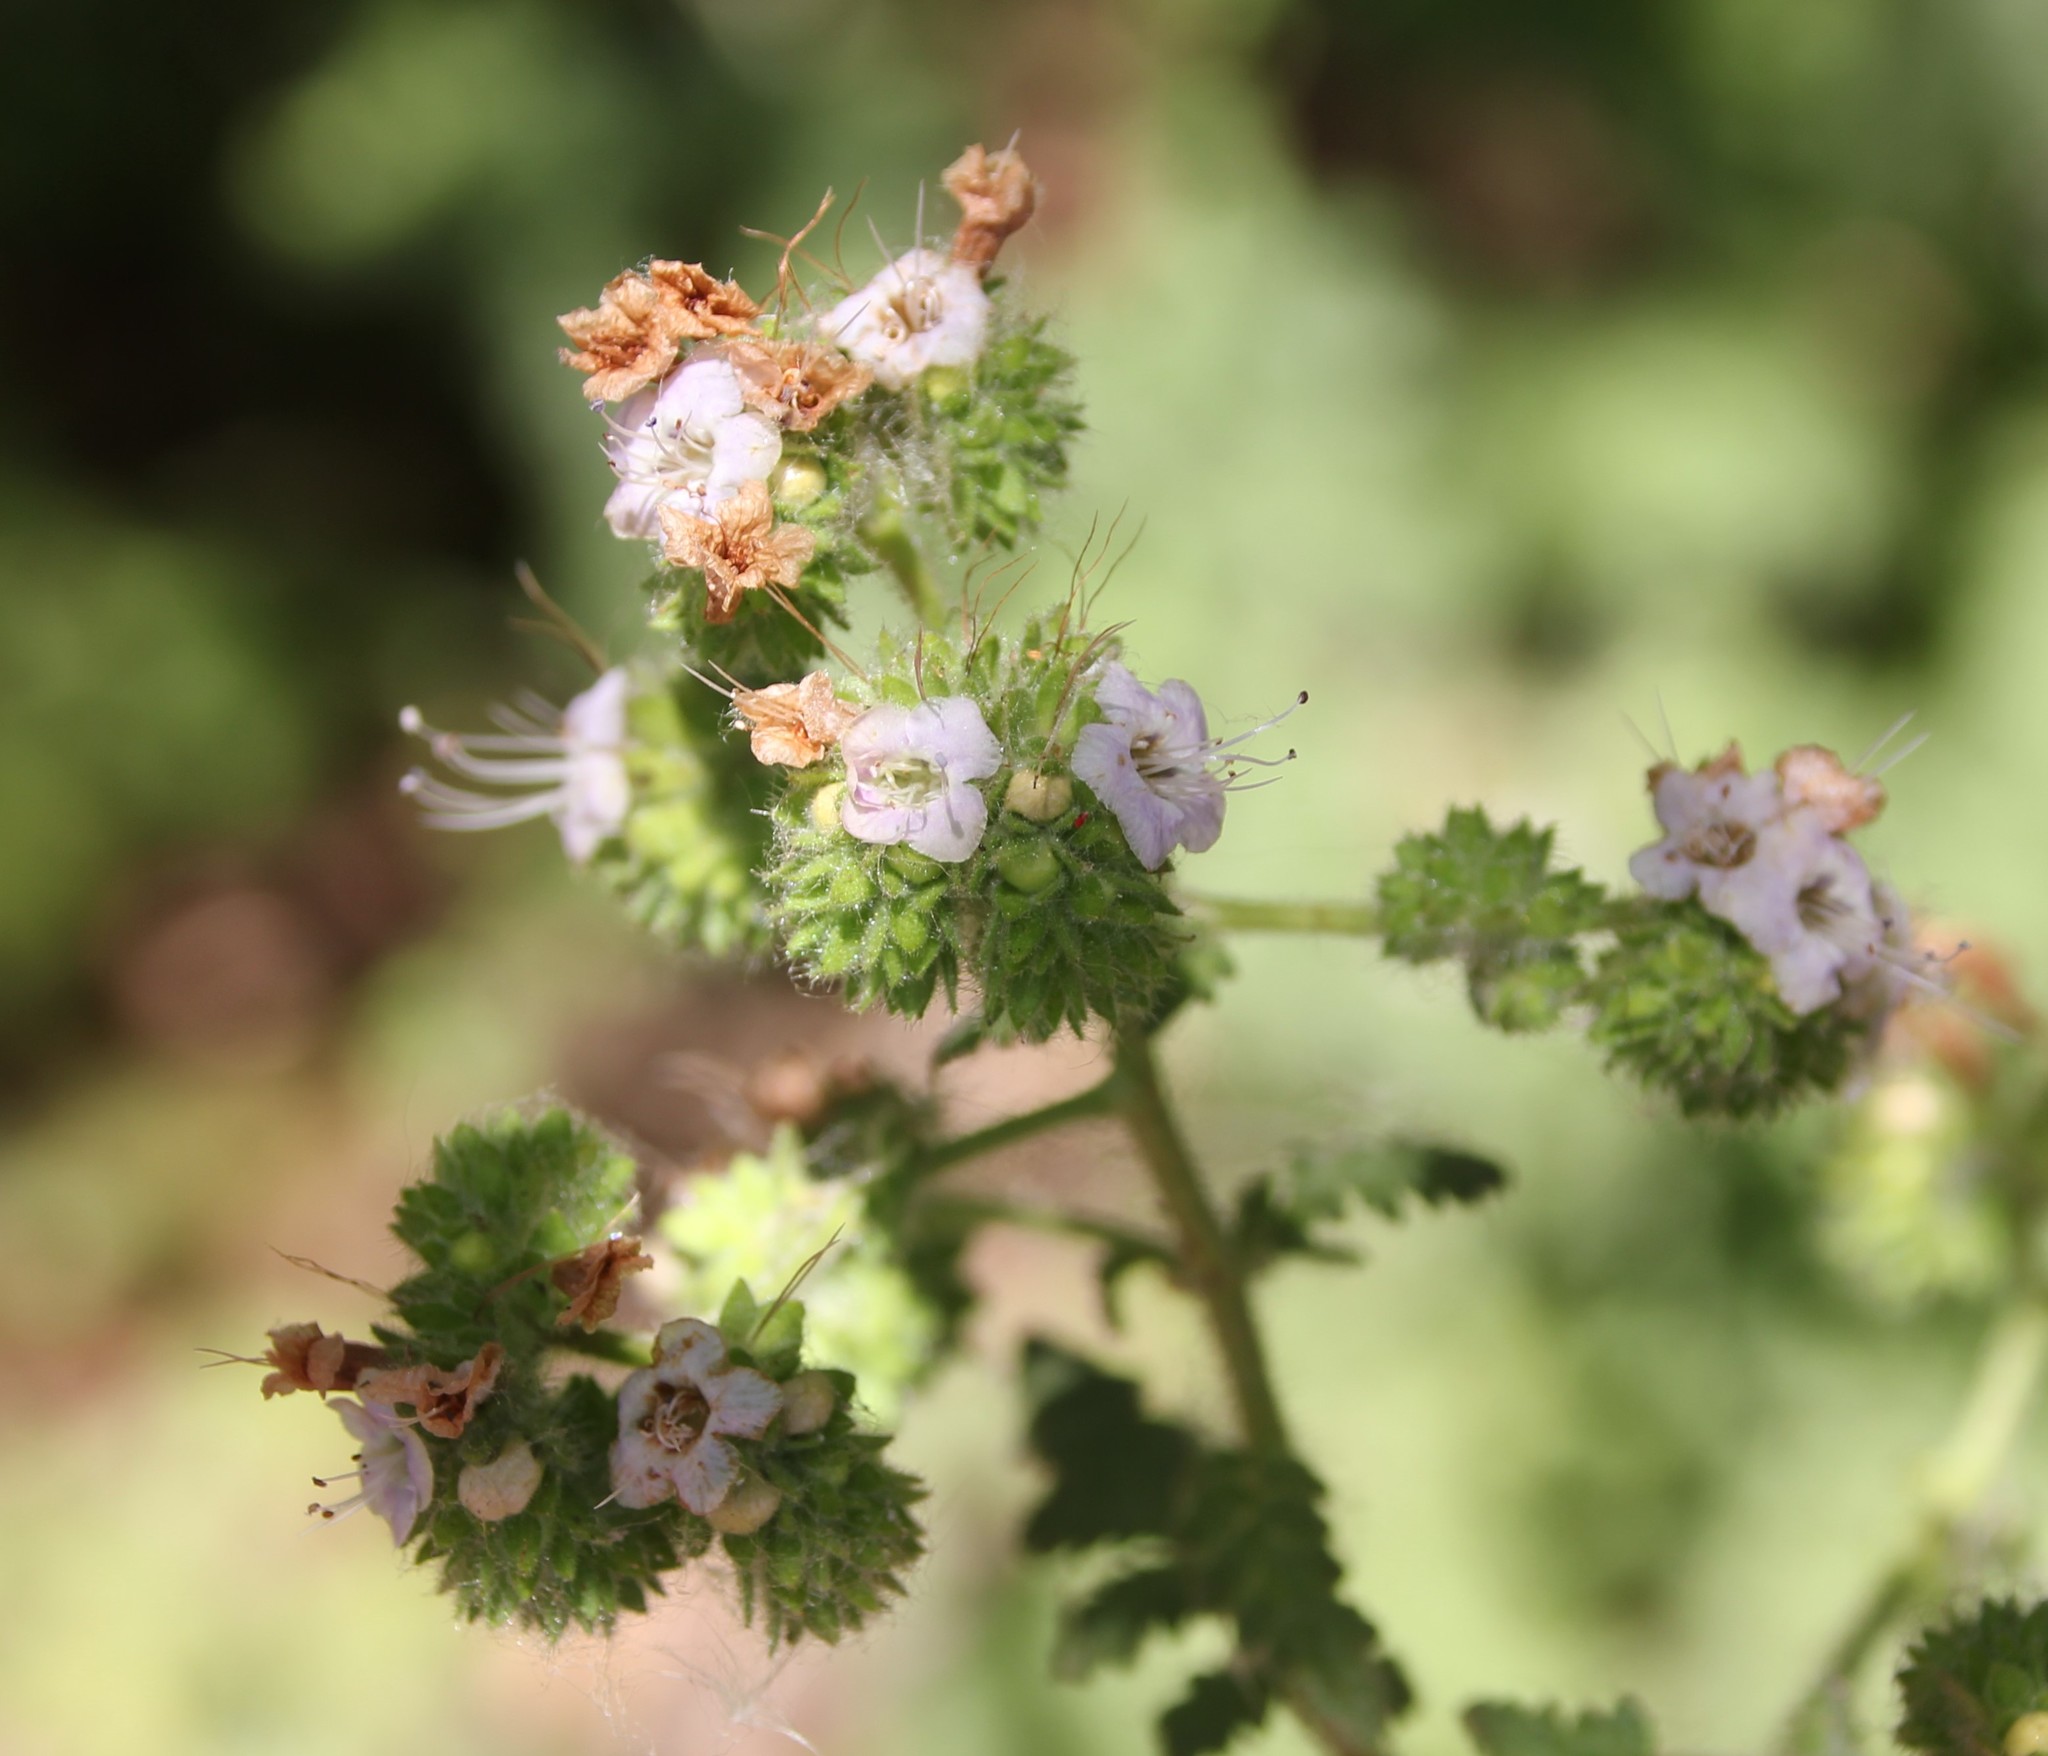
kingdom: Plantae
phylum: Tracheophyta
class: Magnoliopsida
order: Boraginales
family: Hydrophyllaceae
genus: Phacelia
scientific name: Phacelia ramosissima
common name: Branching phacelia
